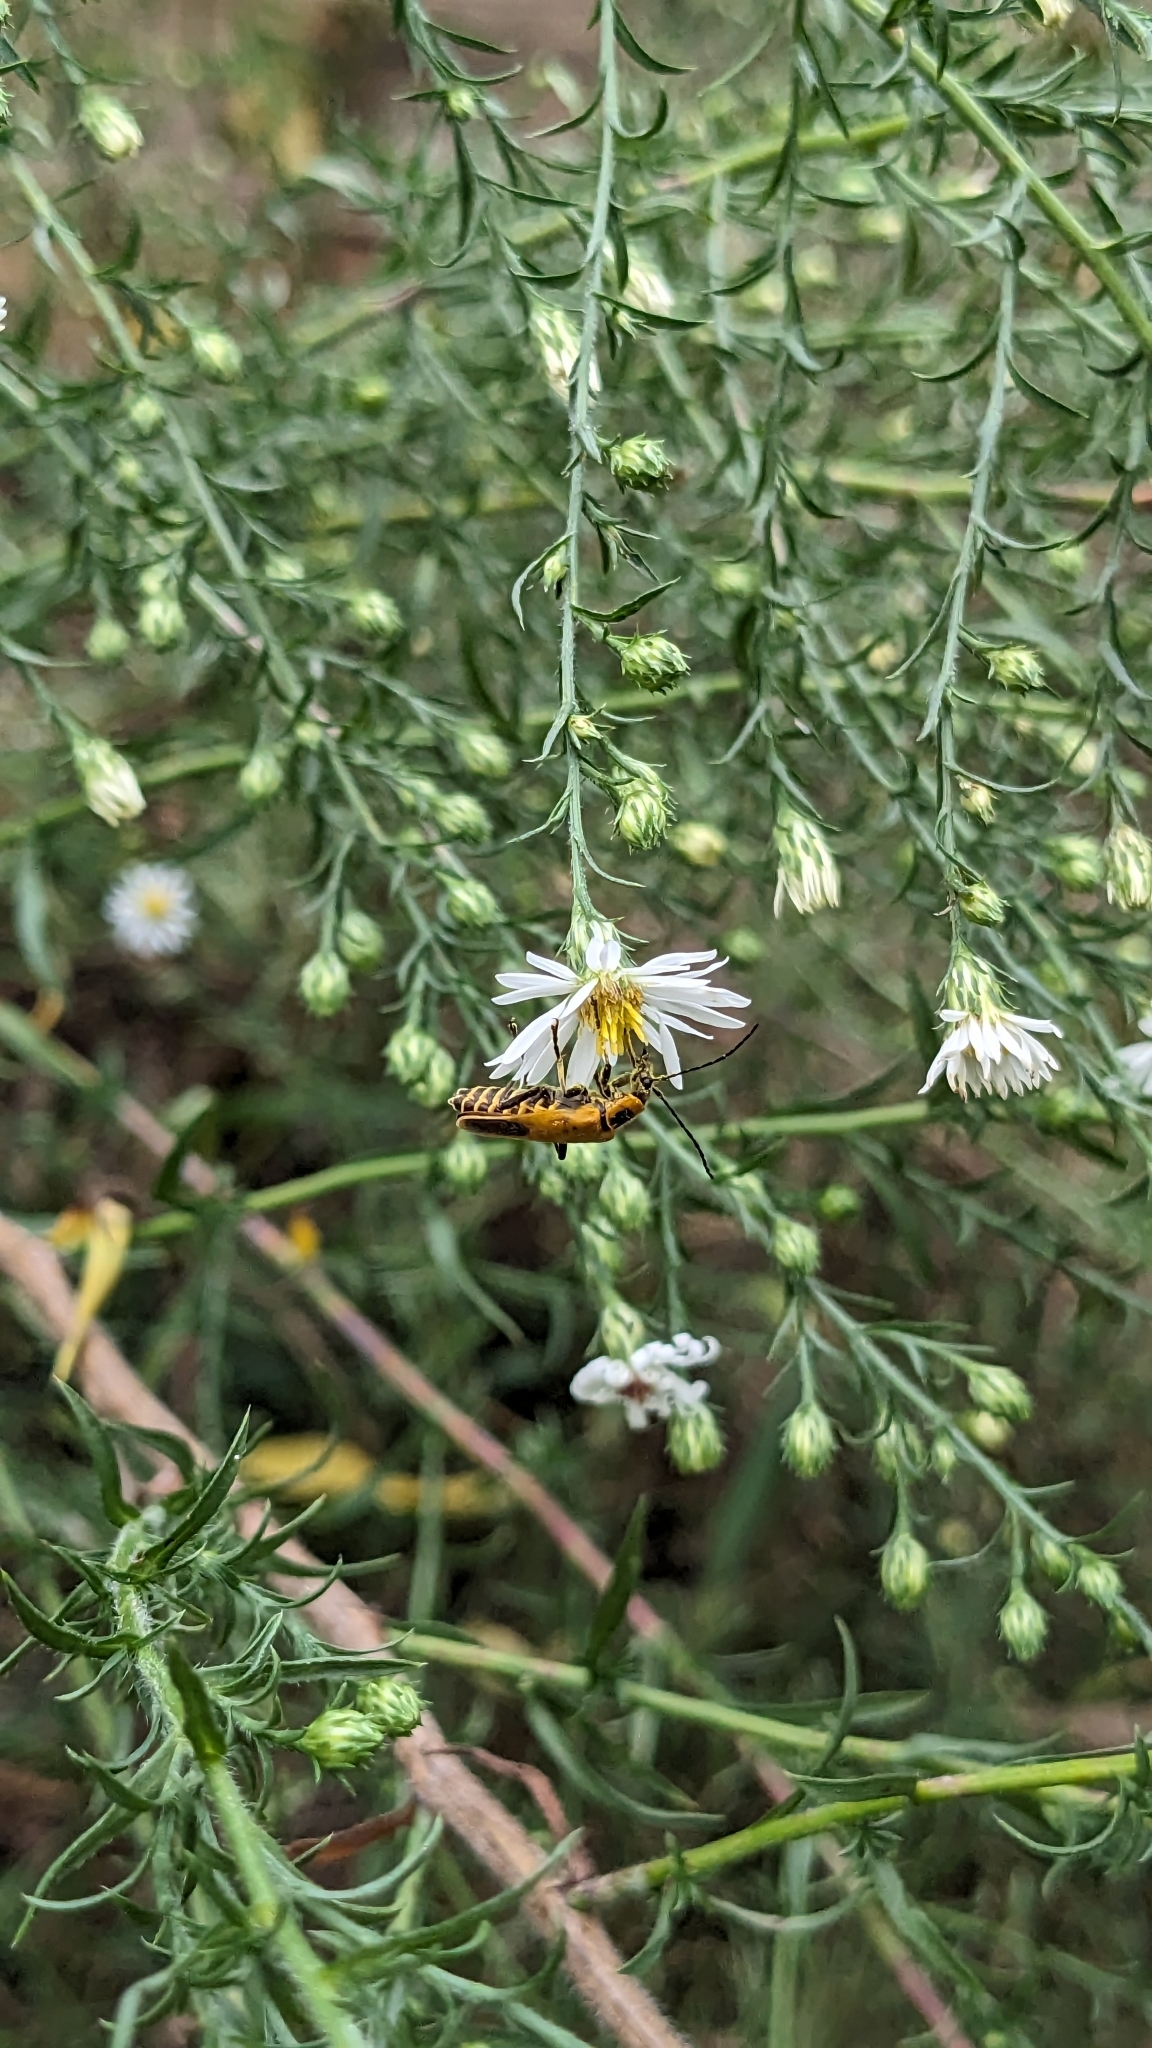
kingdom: Animalia
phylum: Arthropoda
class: Insecta
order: Coleoptera
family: Cantharidae
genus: Chauliognathus
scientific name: Chauliognathus pensylvanicus
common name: Goldenrod soldier beetle
